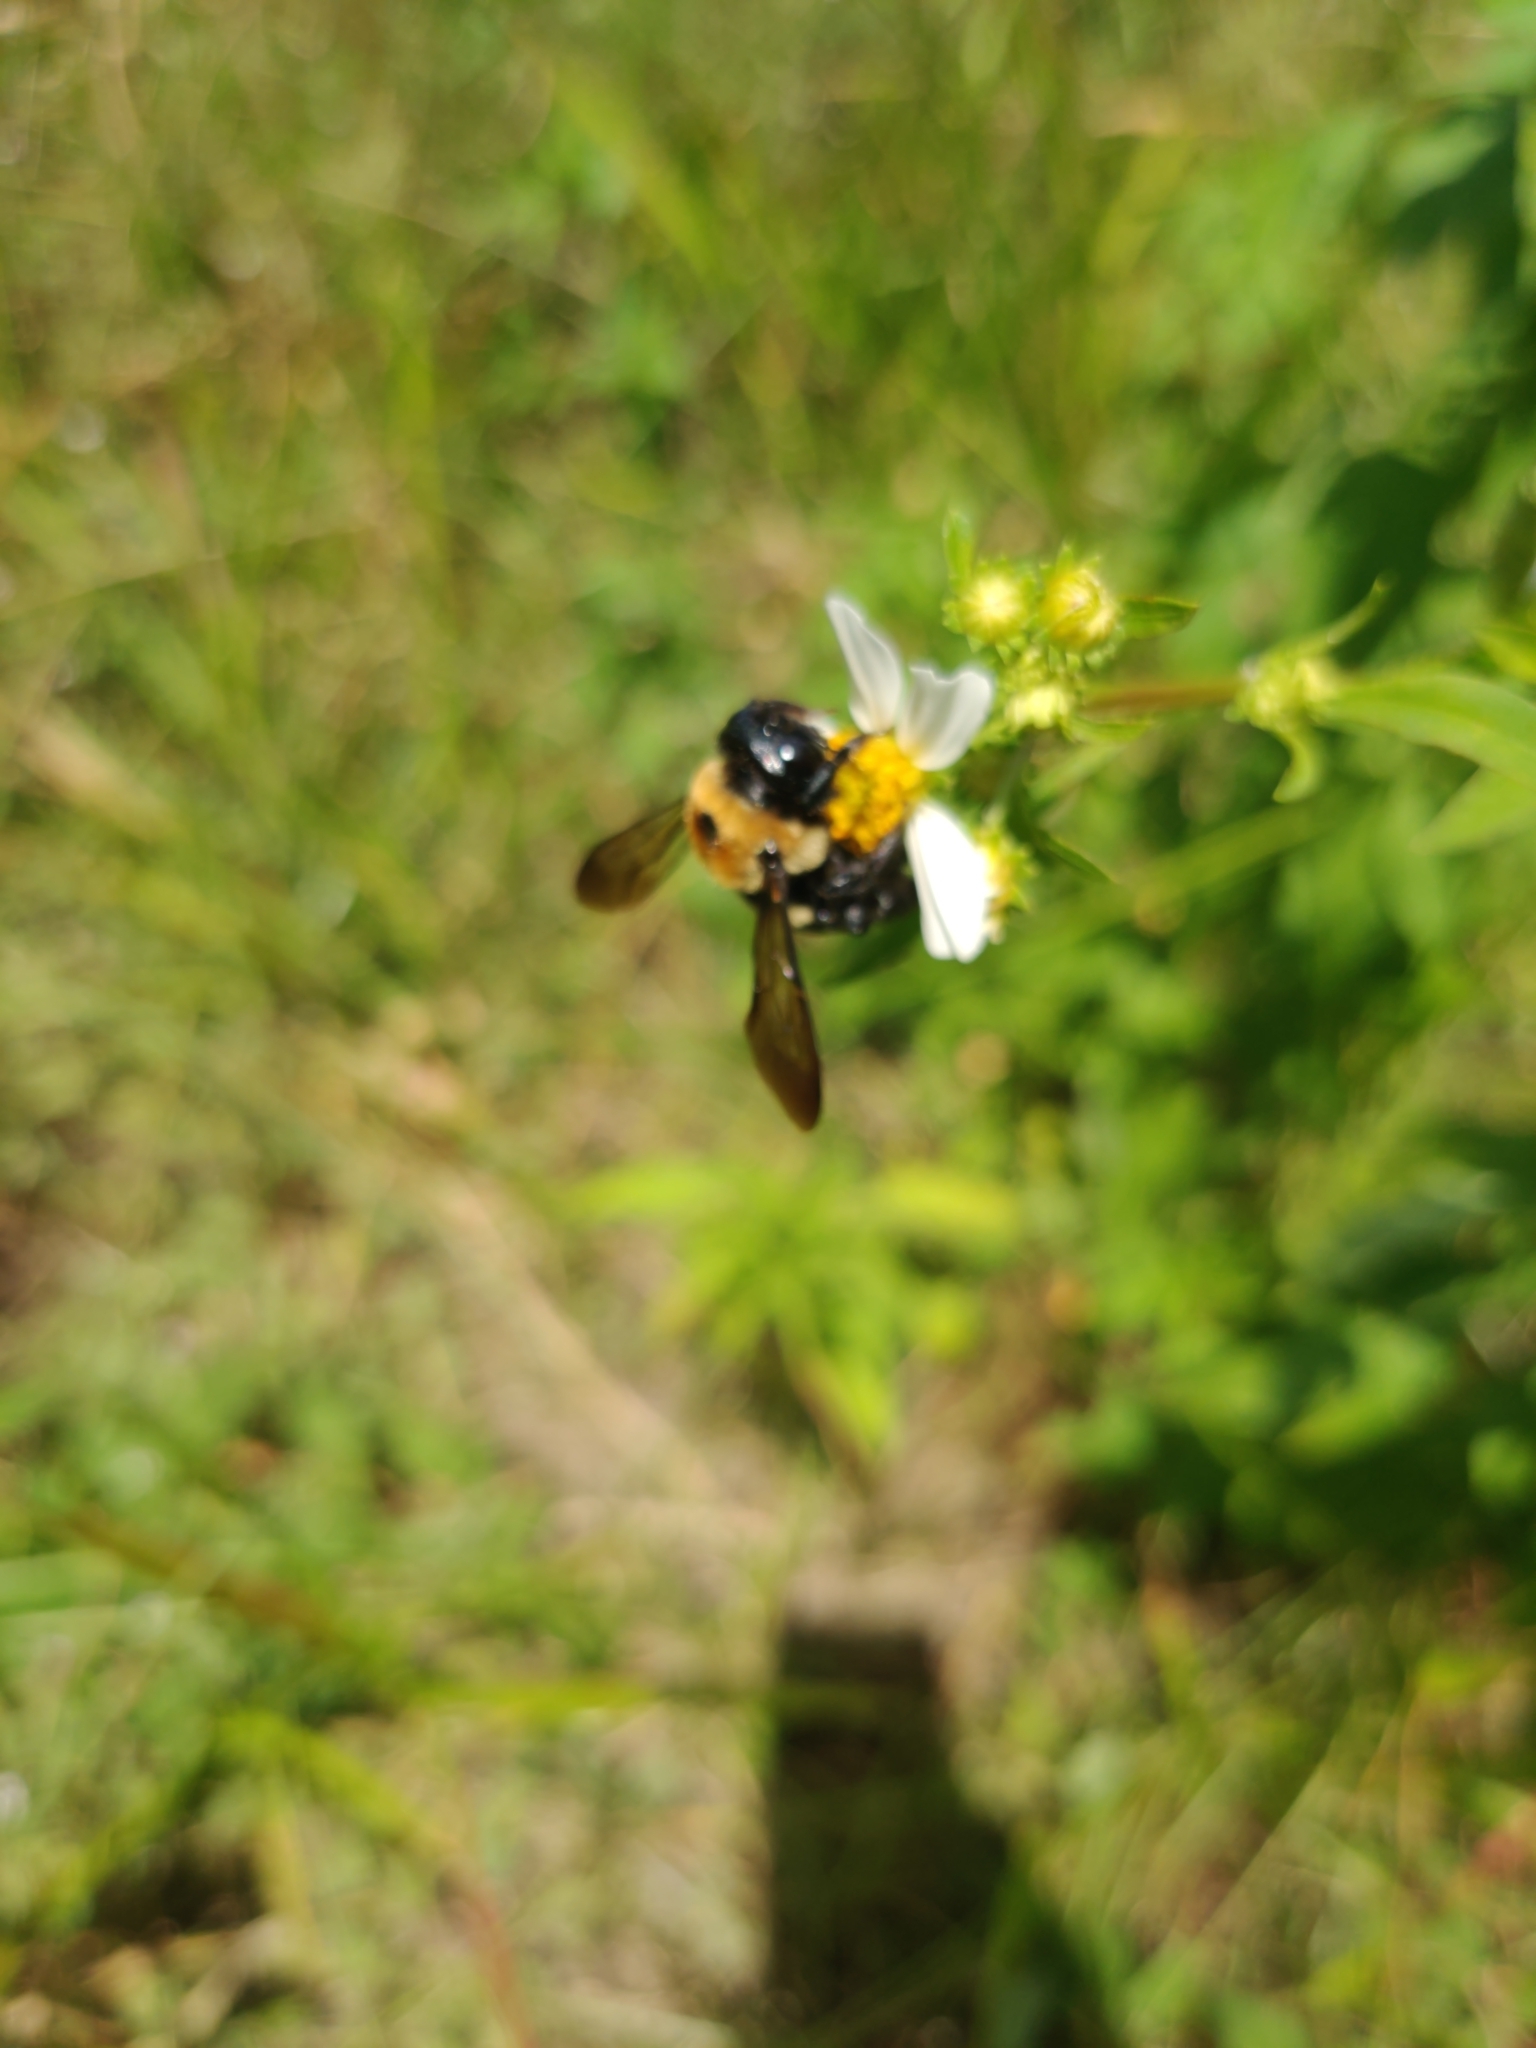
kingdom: Animalia
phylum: Arthropoda
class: Insecta
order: Hymenoptera
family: Apidae
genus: Xylocopa
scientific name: Xylocopa virginica
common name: Carpenter bee
